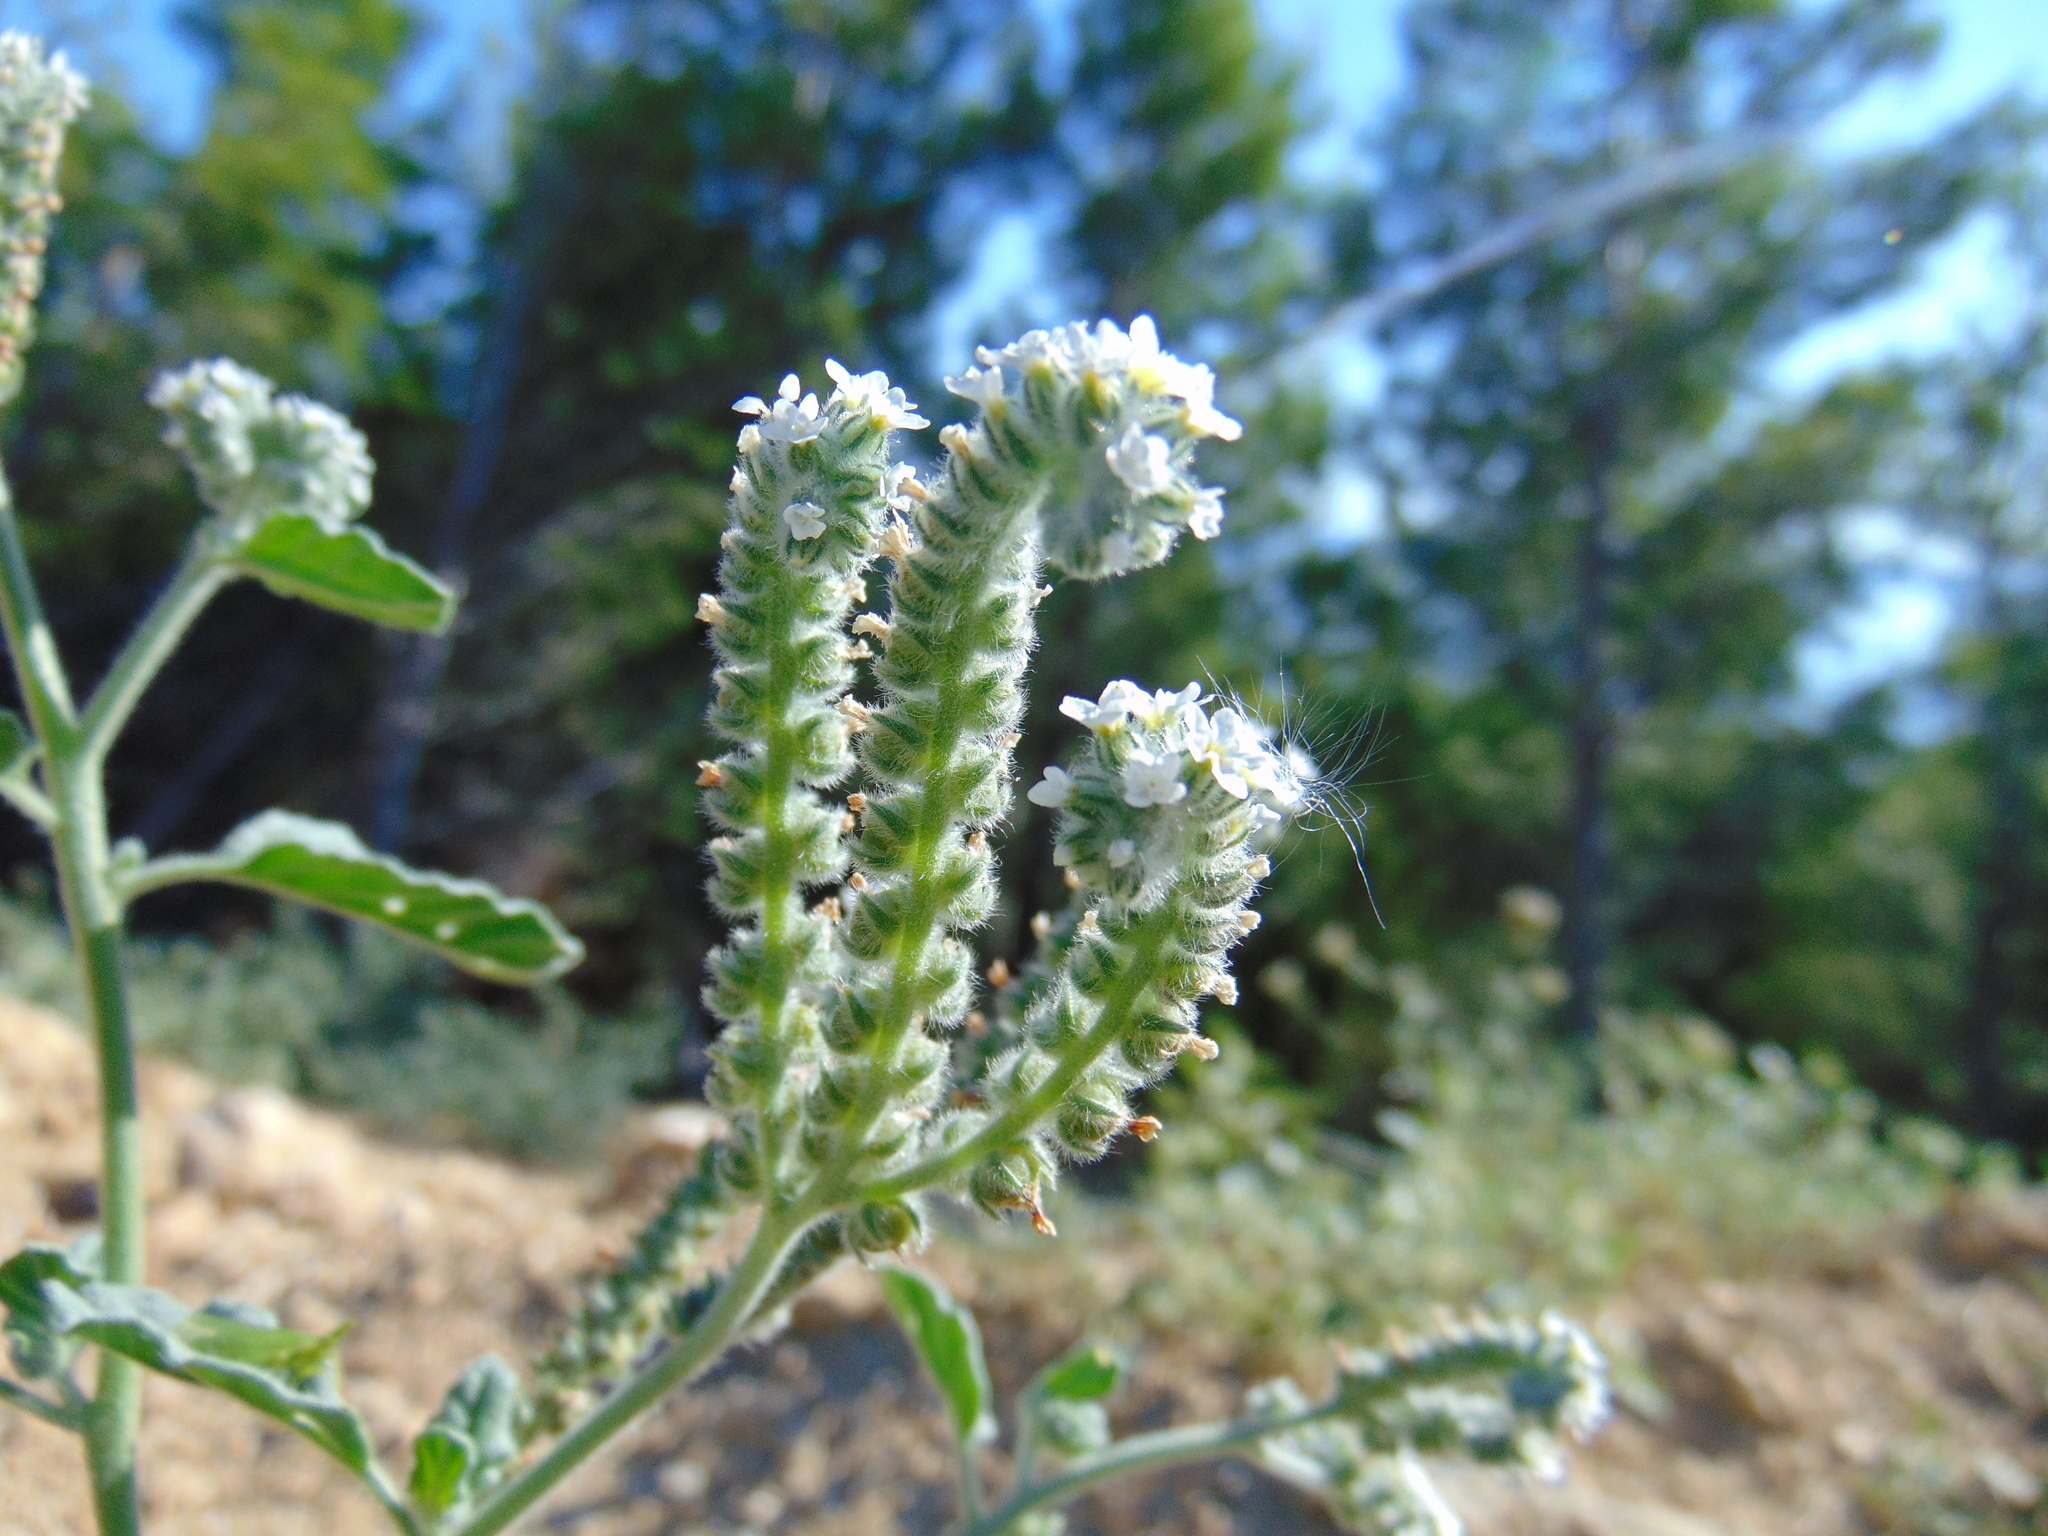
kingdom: Plantae
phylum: Tracheophyta
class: Magnoliopsida
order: Boraginales
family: Heliotropiaceae
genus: Heliotropium
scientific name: Heliotropium europaeum
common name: European heliotrope
